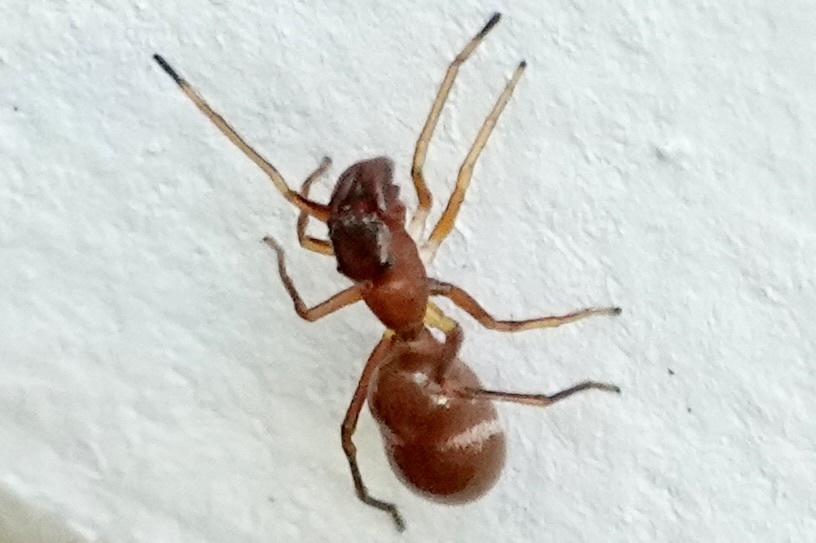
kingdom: Animalia
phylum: Arthropoda
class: Arachnida
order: Araneae
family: Salticidae
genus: Sarinda
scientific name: Sarinda hentzi
